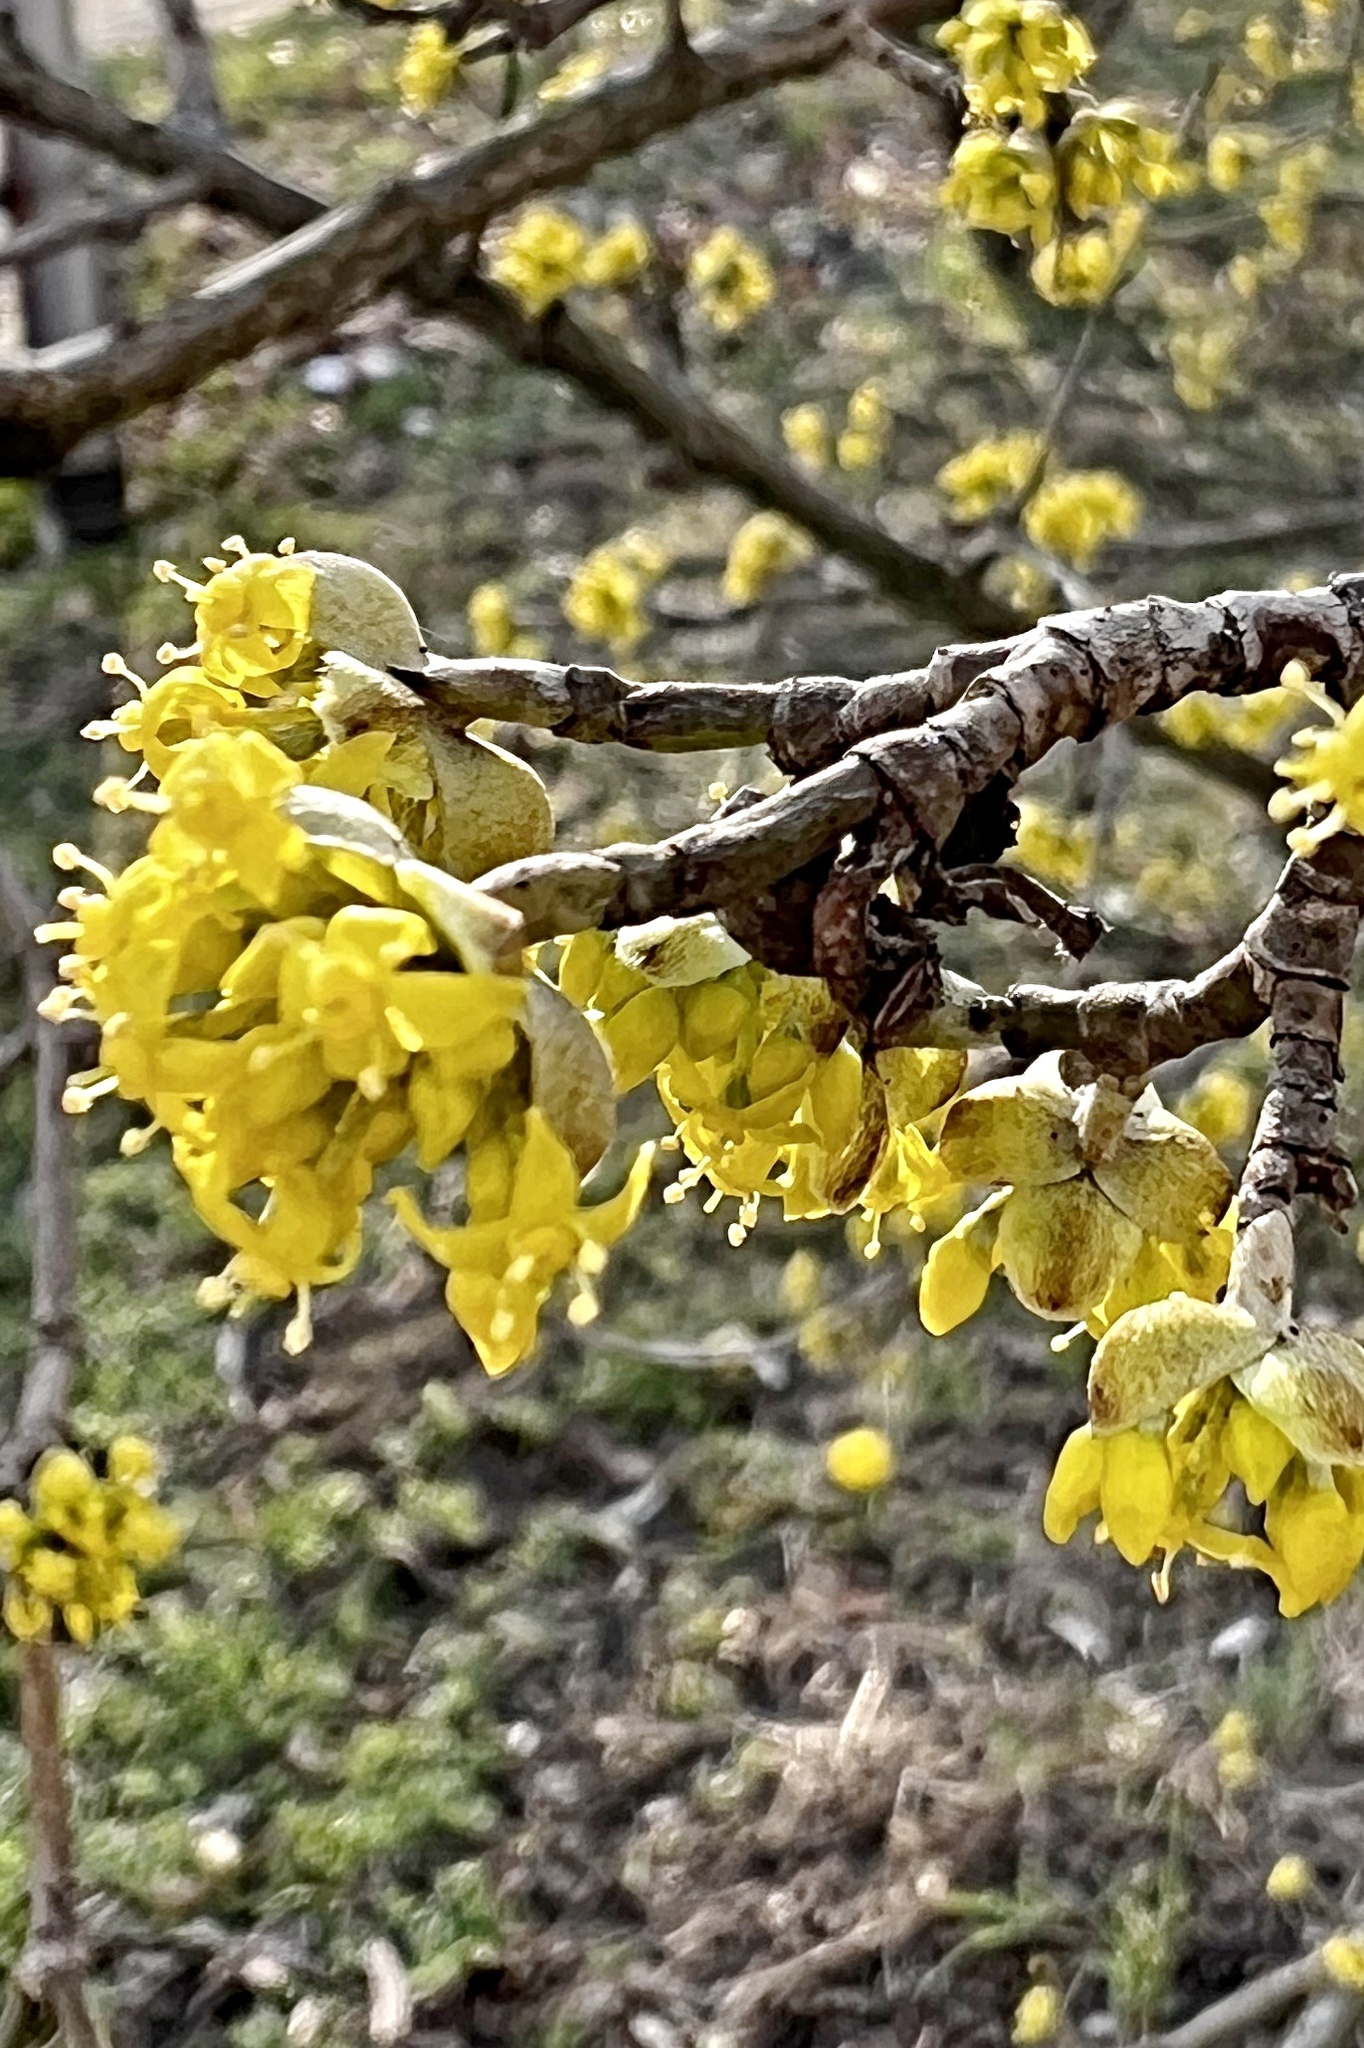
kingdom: Plantae
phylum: Tracheophyta
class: Magnoliopsida
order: Cornales
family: Cornaceae
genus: Cornus
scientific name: Cornus mas
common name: Cornelian-cherry
